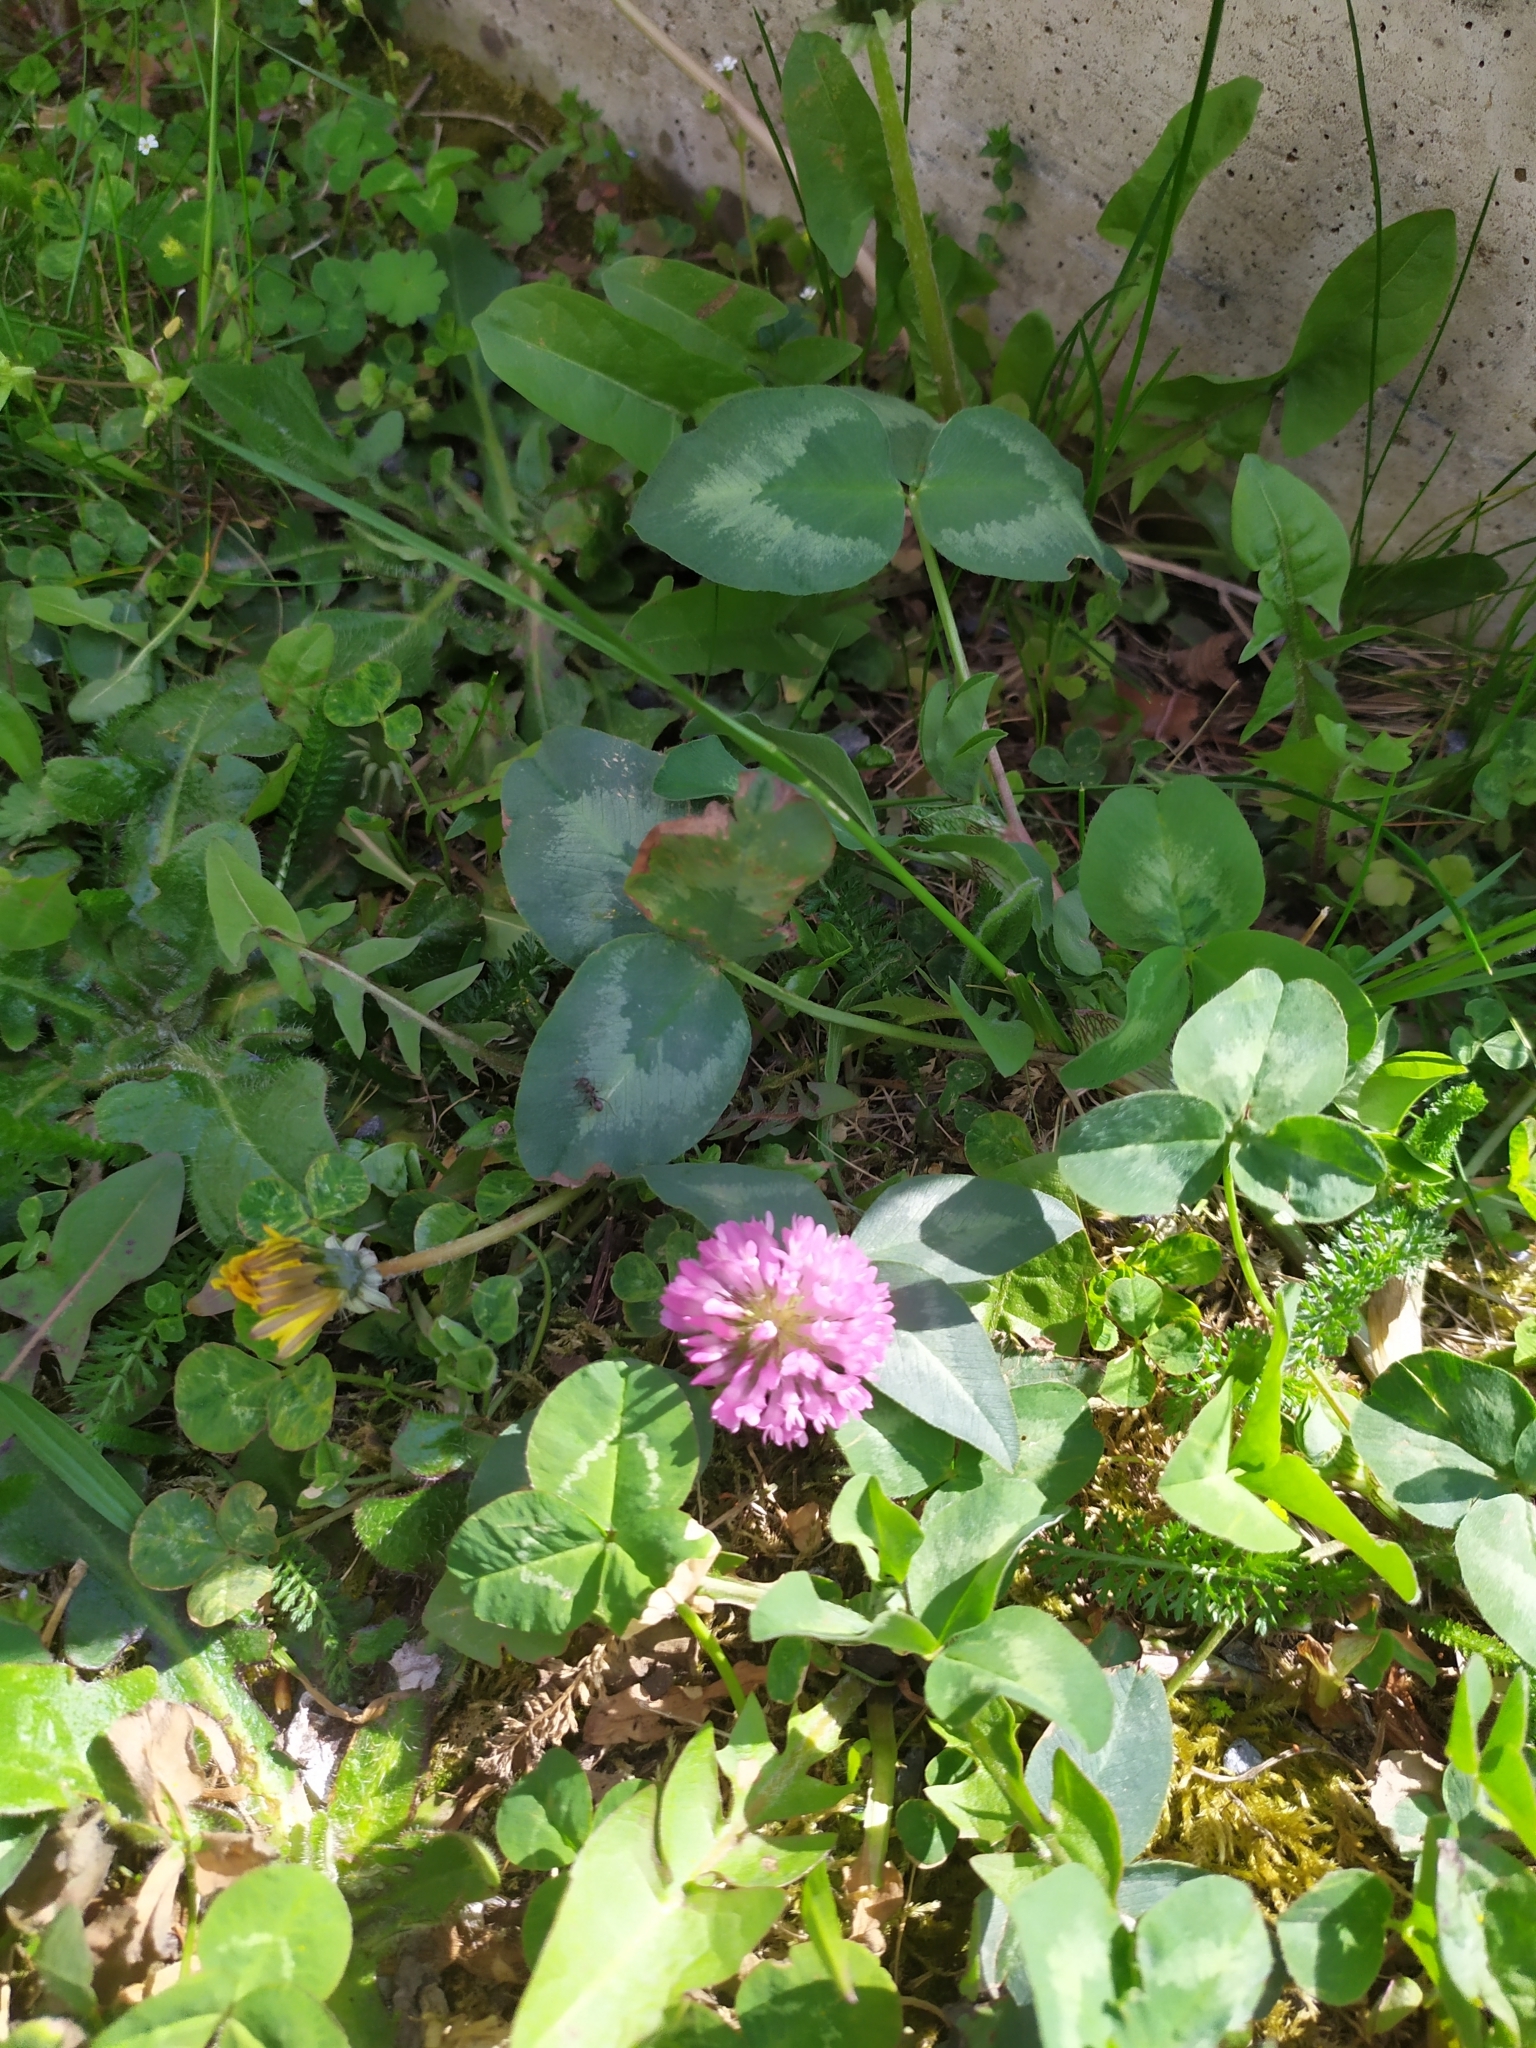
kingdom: Plantae
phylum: Tracheophyta
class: Magnoliopsida
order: Fabales
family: Fabaceae
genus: Trifolium
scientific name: Trifolium pratense
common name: Red clover
